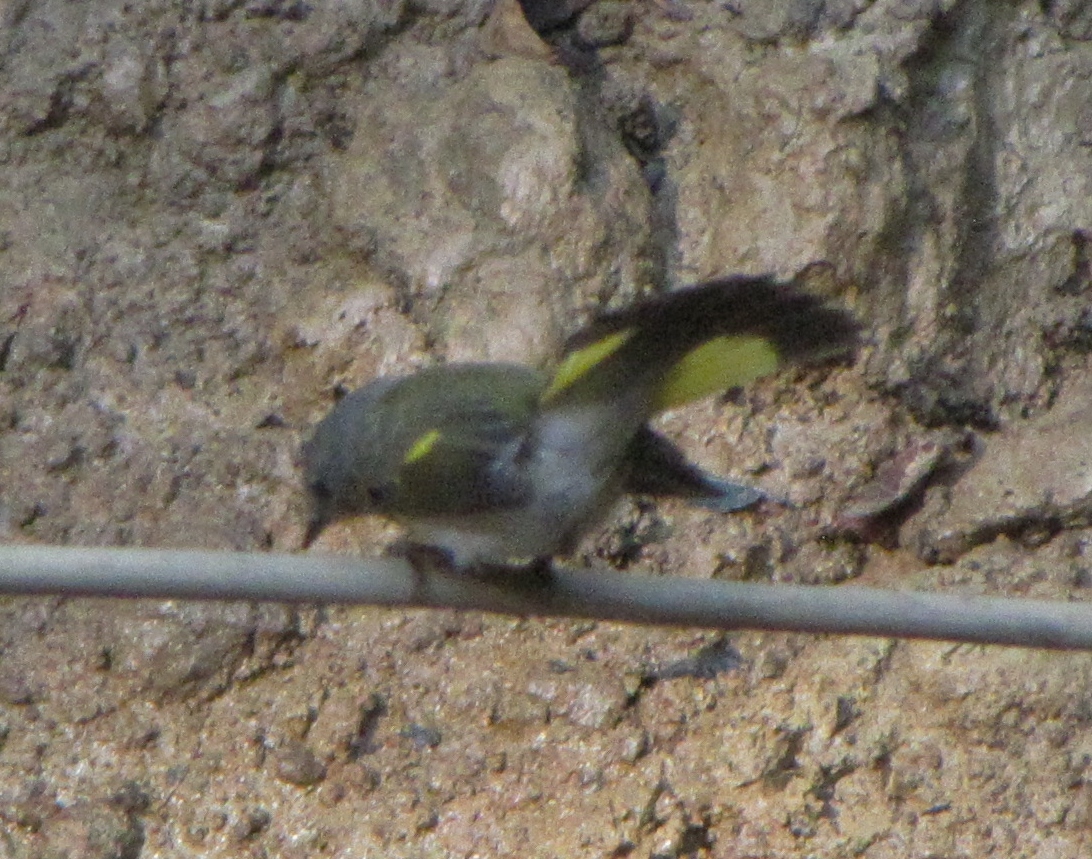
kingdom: Animalia
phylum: Chordata
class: Aves
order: Passeriformes
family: Parulidae
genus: Setophaga
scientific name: Setophaga ruticilla
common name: American redstart
